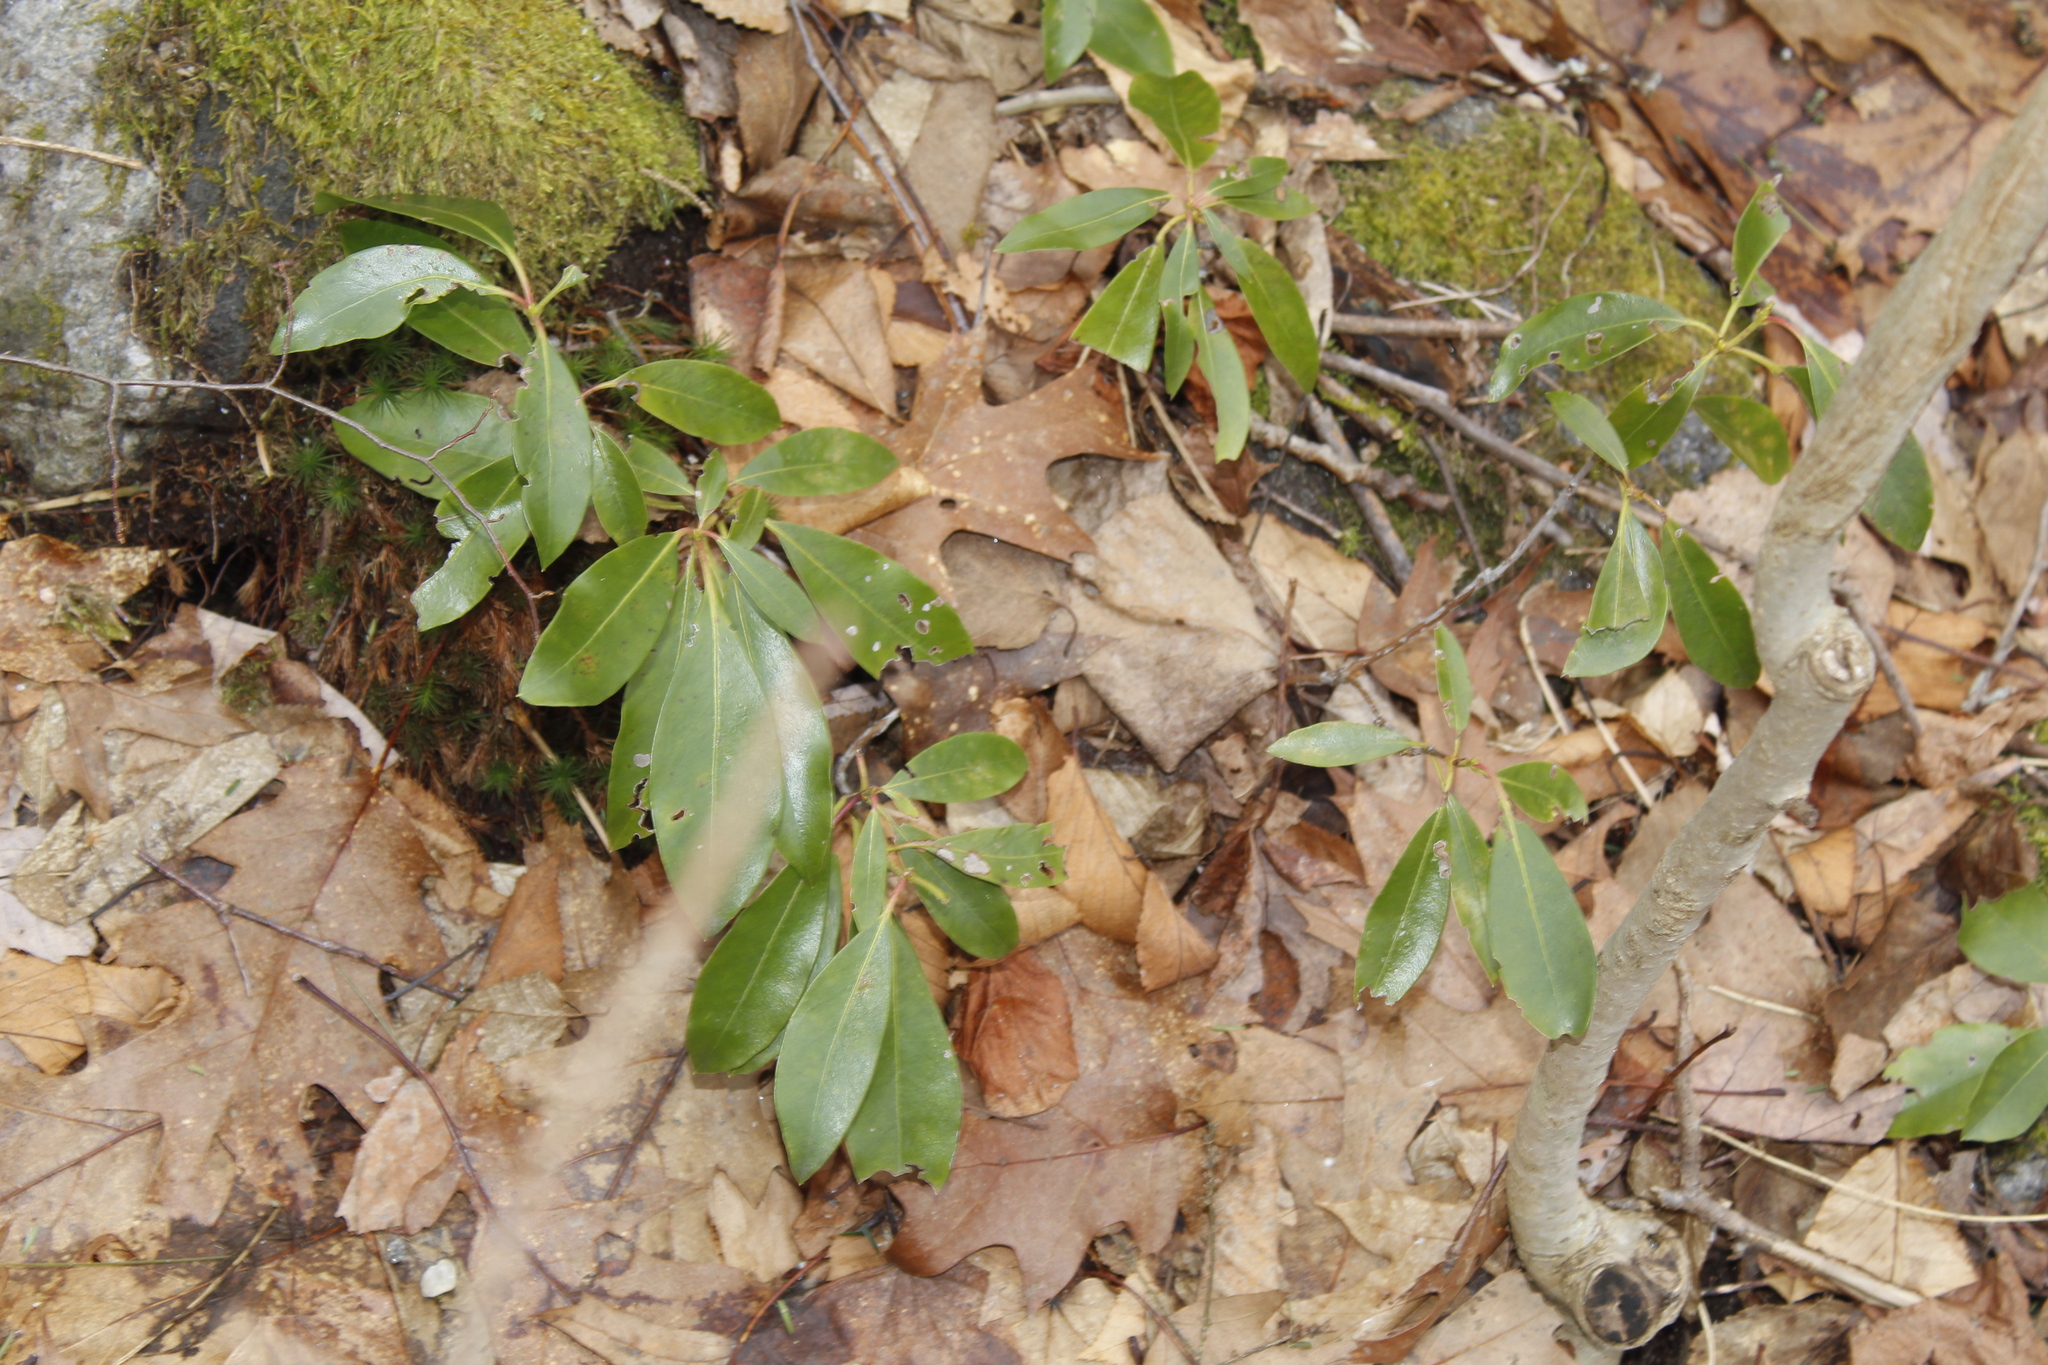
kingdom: Plantae
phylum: Tracheophyta
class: Magnoliopsida
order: Ericales
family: Ericaceae
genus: Kalmia
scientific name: Kalmia latifolia
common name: Mountain-laurel
